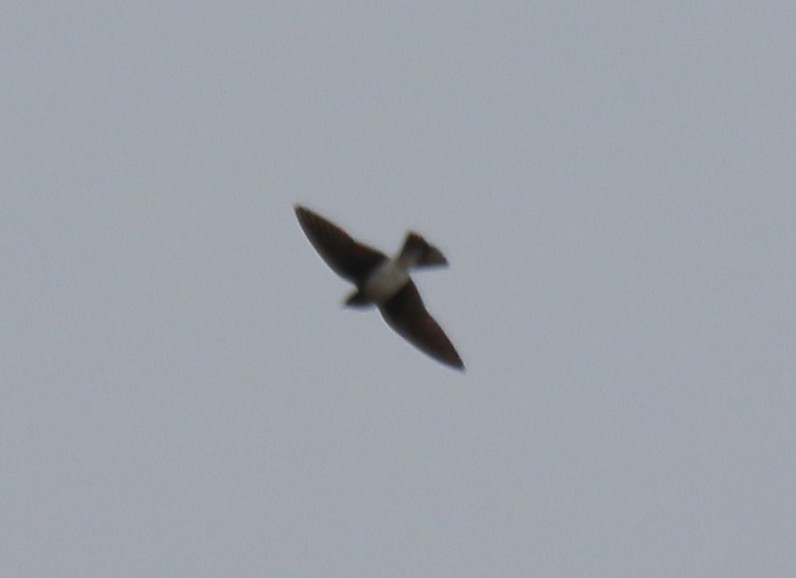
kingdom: Animalia
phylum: Chordata
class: Aves
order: Passeriformes
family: Hirundinidae
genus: Progne
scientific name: Progne chalybea
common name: Grey-breasted martin
